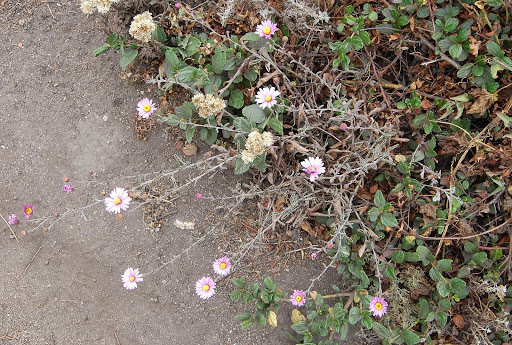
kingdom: Plantae
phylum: Tracheophyta
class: Magnoliopsida
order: Asterales
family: Asteraceae
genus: Corethrogyne
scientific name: Corethrogyne filaginifolia
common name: Sand-aster
